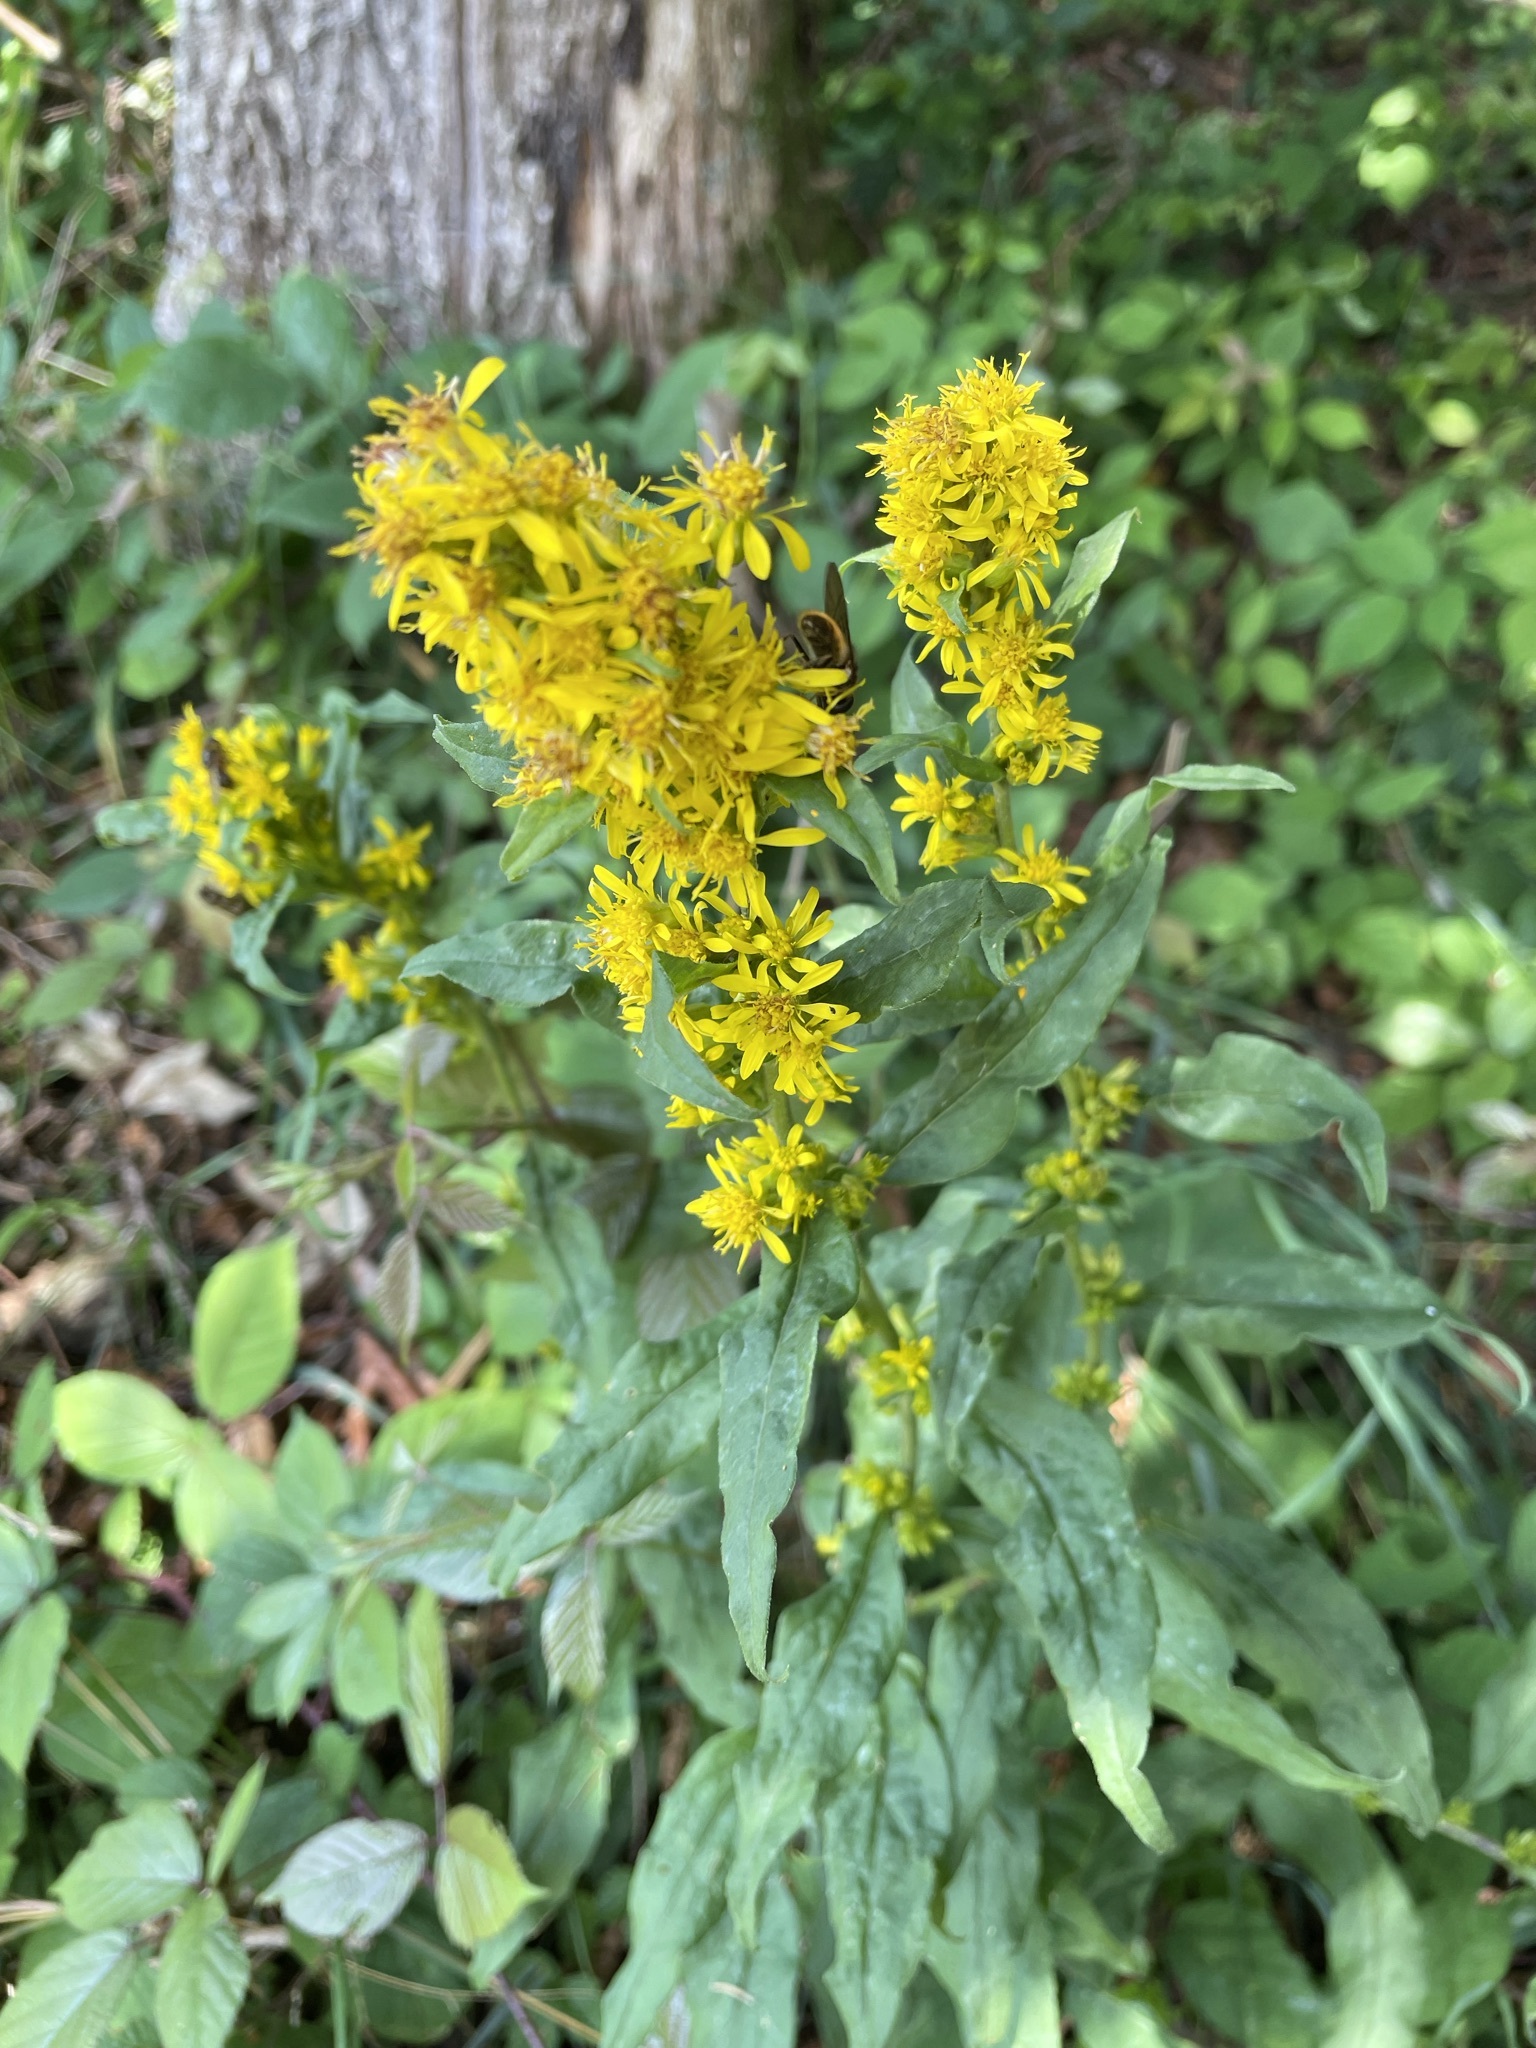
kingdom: Plantae
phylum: Tracheophyta
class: Magnoliopsida
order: Asterales
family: Asteraceae
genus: Solidago
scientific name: Solidago virgaurea
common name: Goldenrod
